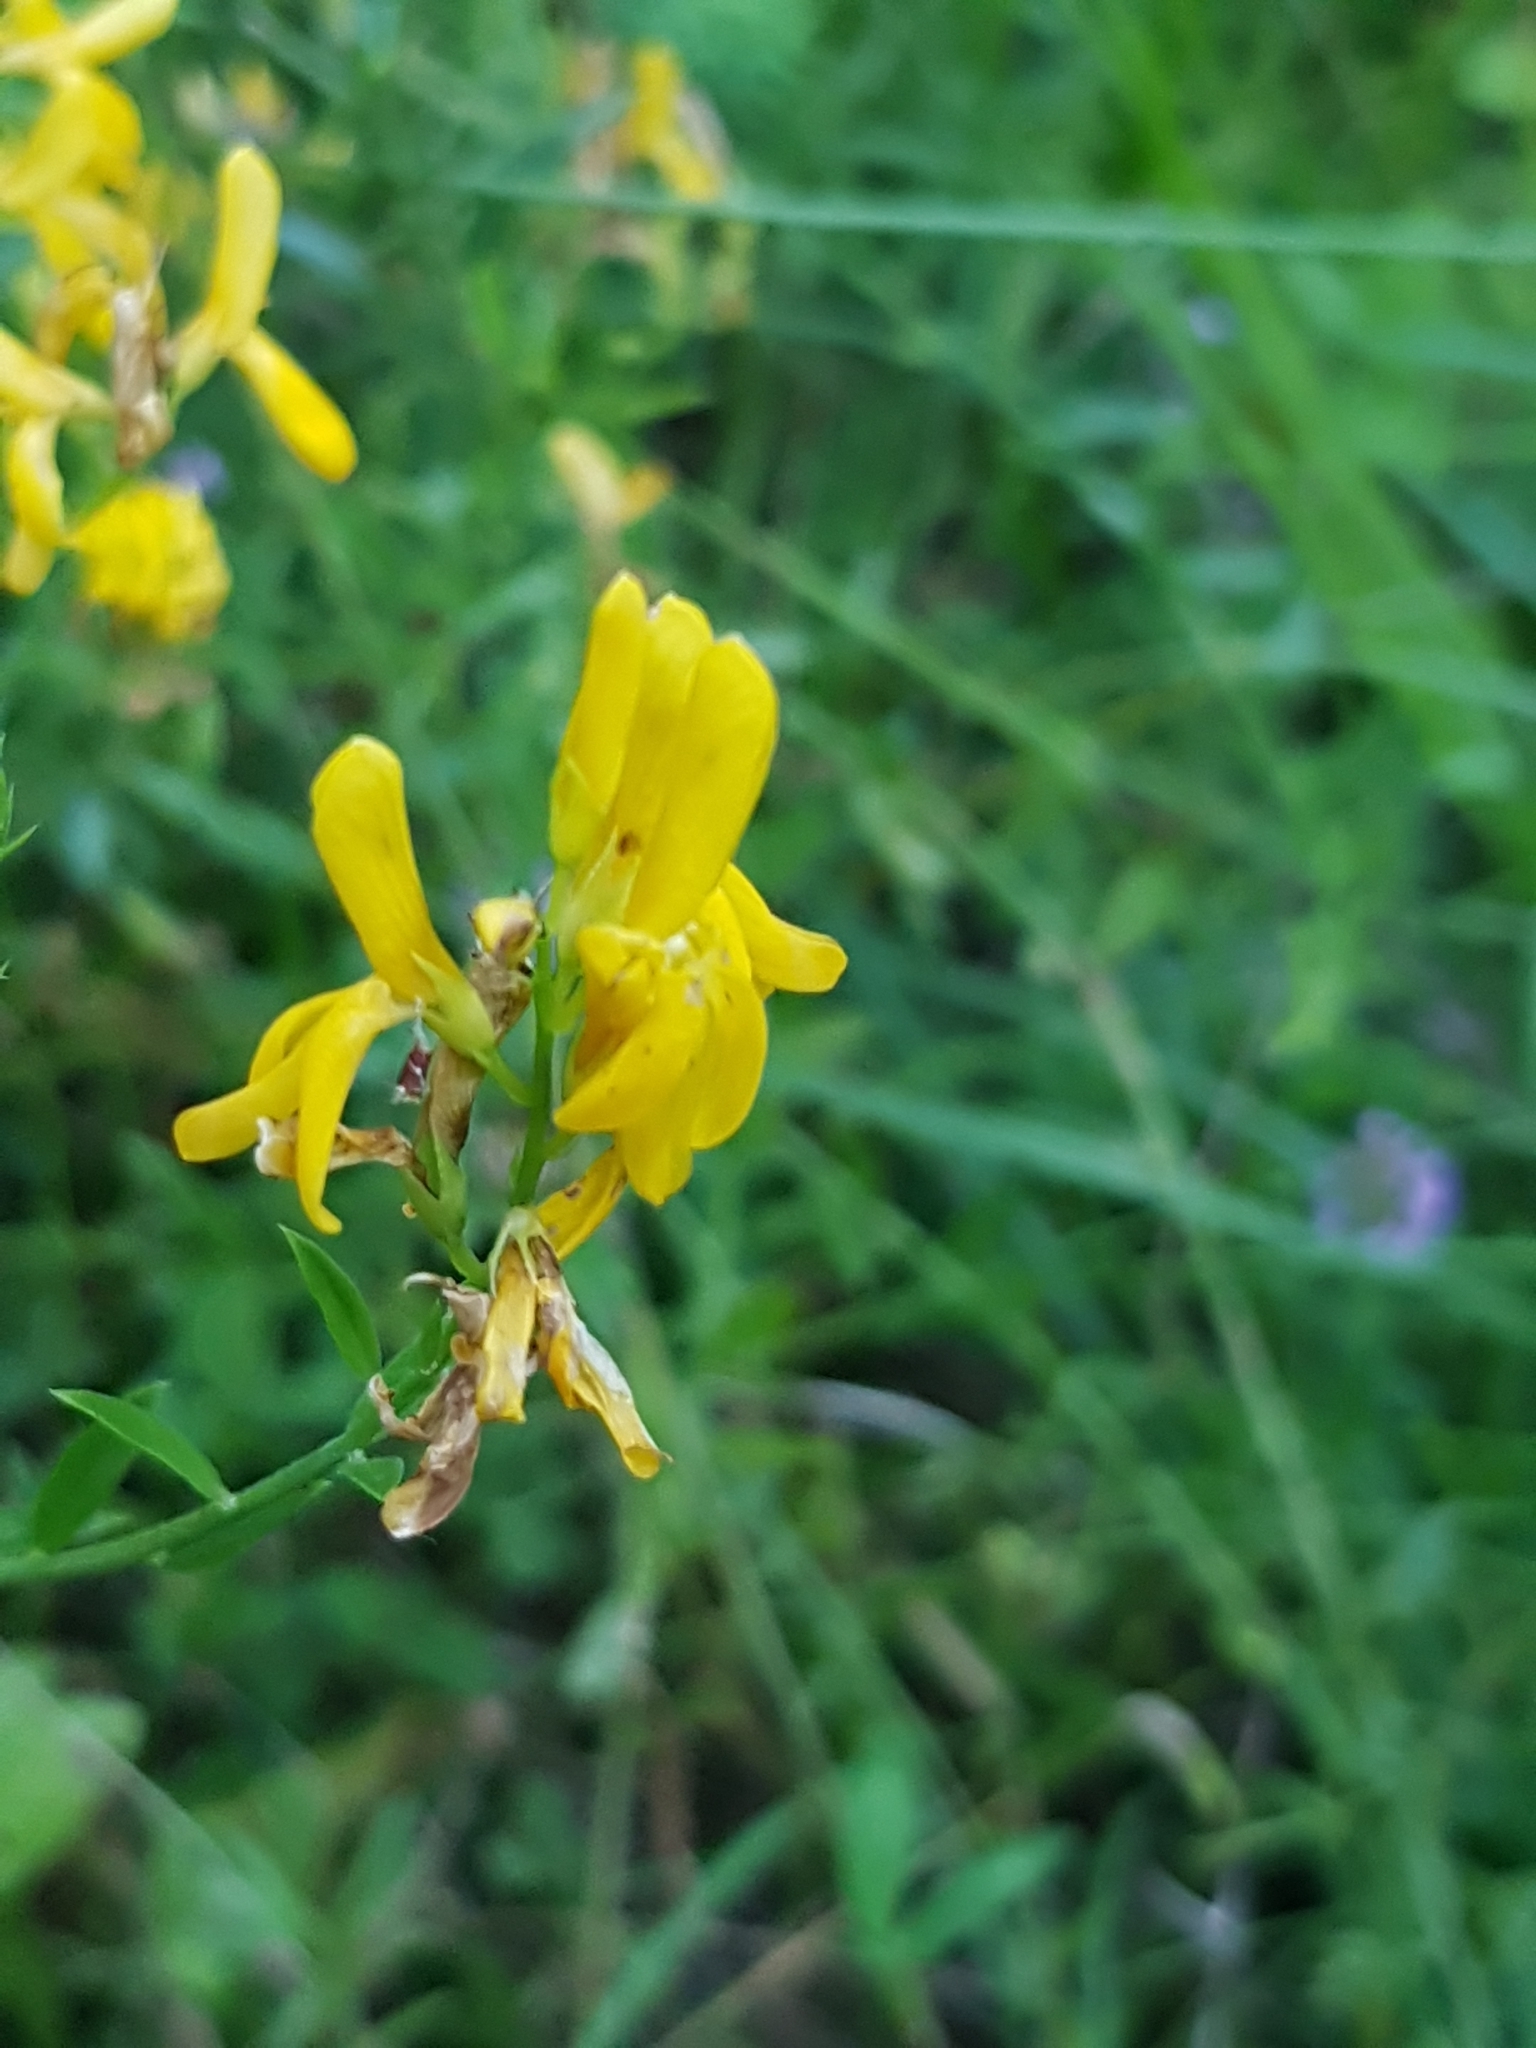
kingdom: Plantae
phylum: Tracheophyta
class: Magnoliopsida
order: Fabales
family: Fabaceae
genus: Genista
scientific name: Genista tinctoria
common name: Dyer's greenweed
